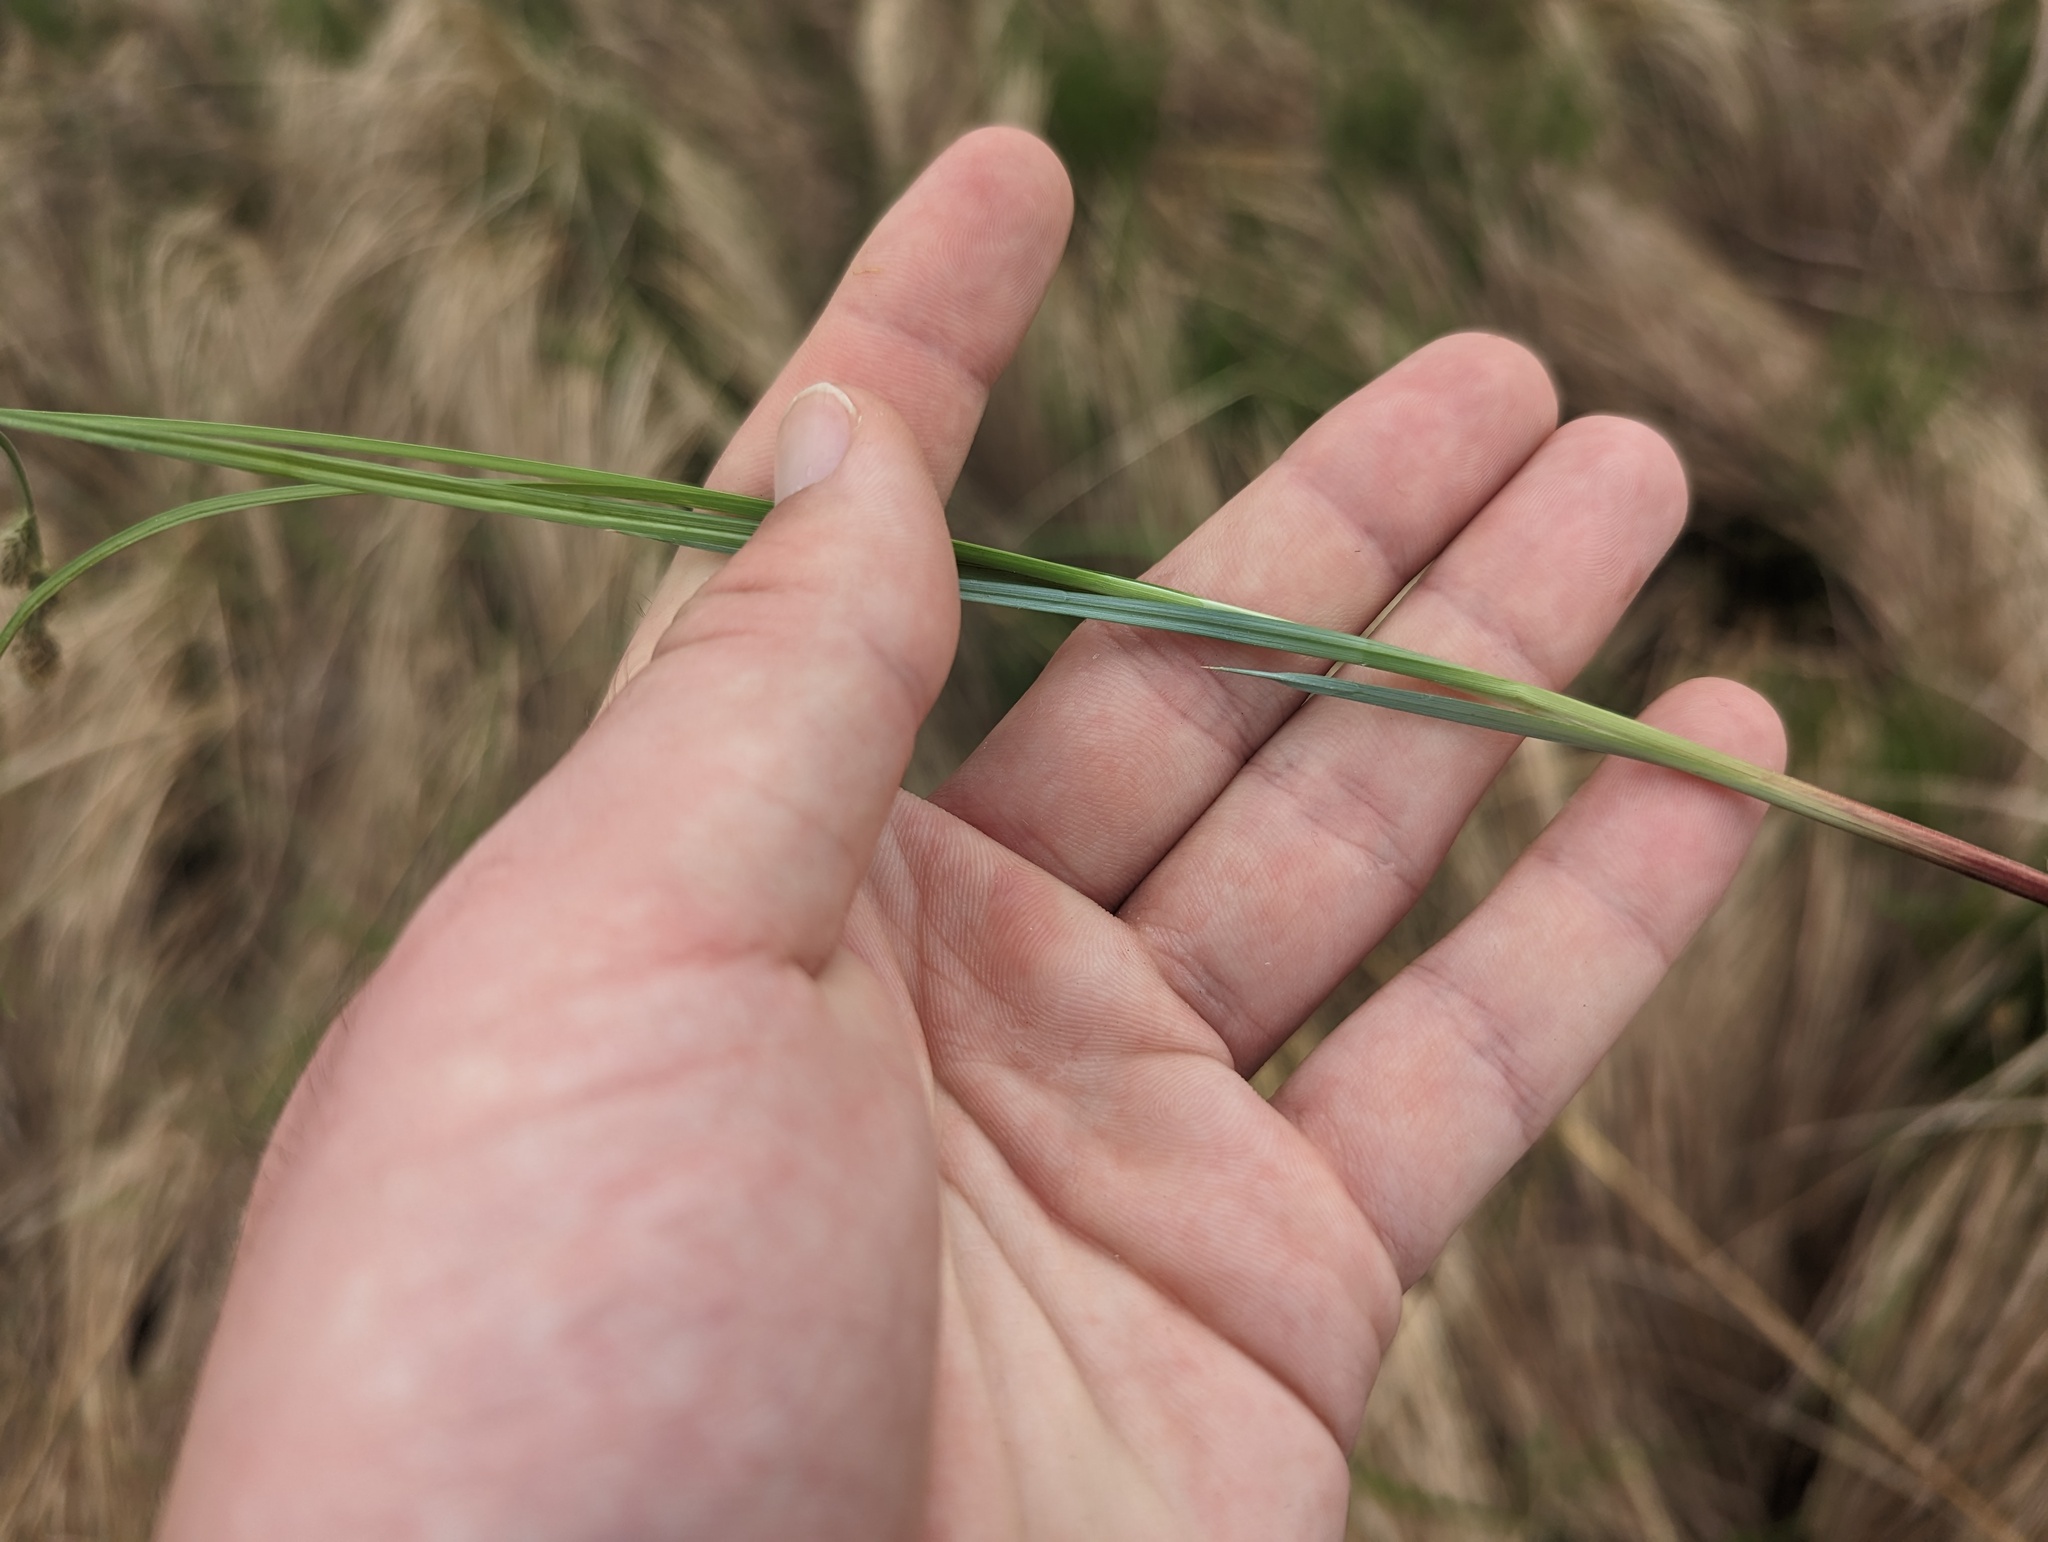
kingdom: Plantae
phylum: Tracheophyta
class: Liliopsida
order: Poales
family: Cyperaceae
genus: Carex
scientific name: Carex buxbaumii
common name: Club sedge
